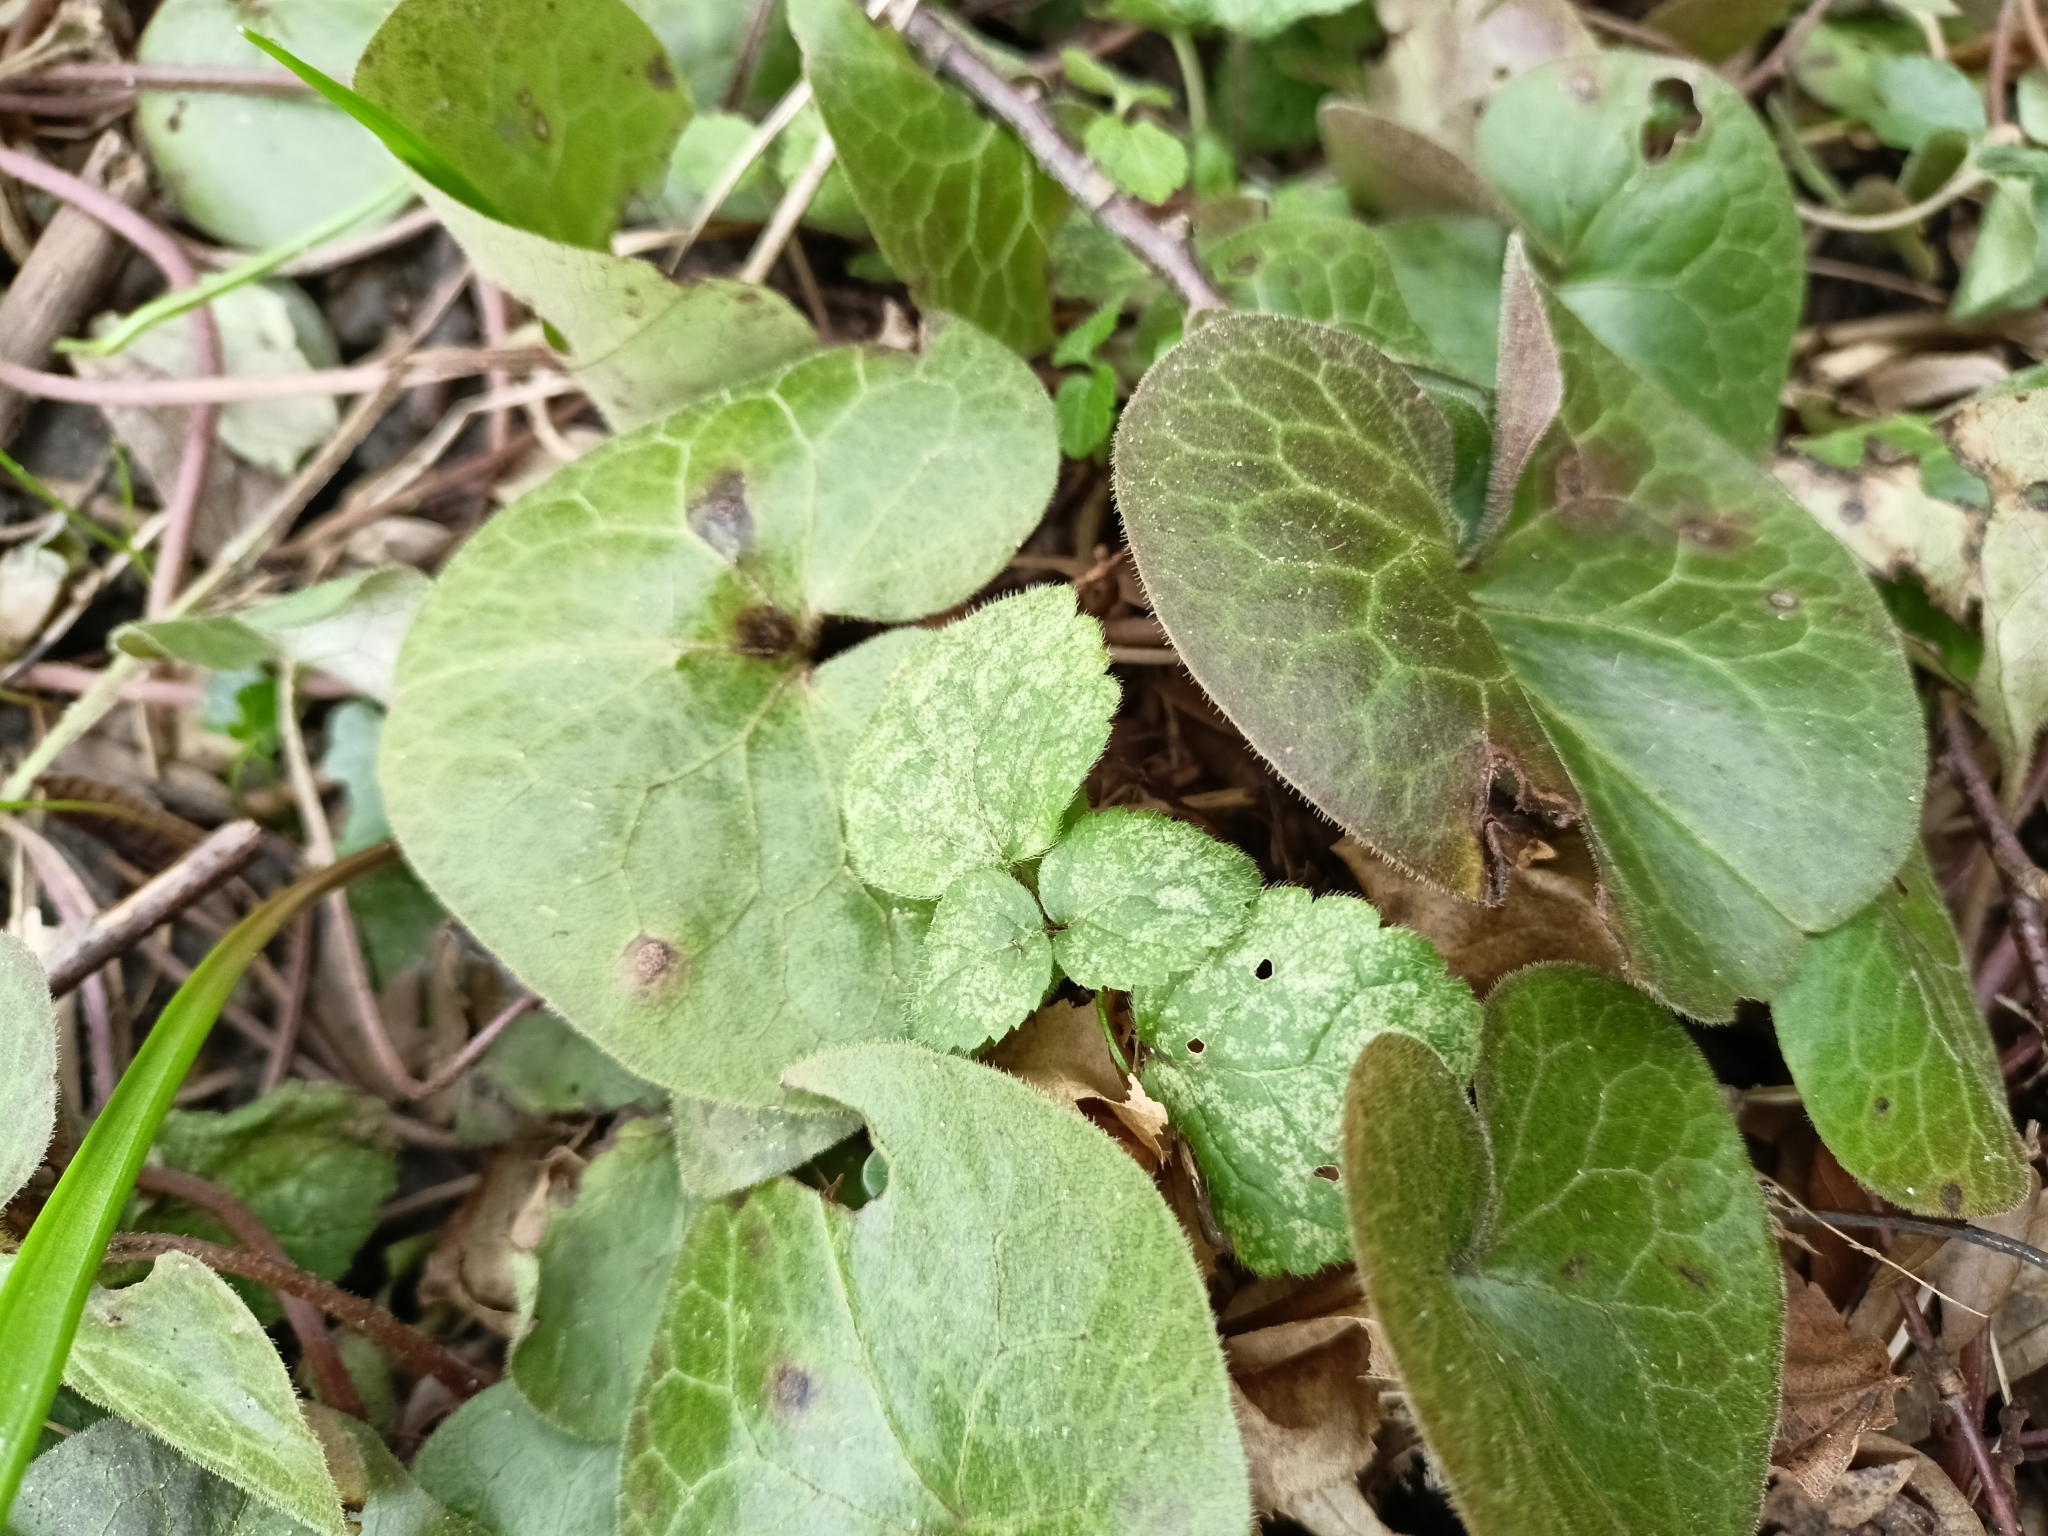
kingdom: Plantae
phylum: Tracheophyta
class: Magnoliopsida
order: Piperales
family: Aristolochiaceae
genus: Asarum
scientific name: Asarum europaeum
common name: Asarabacca
